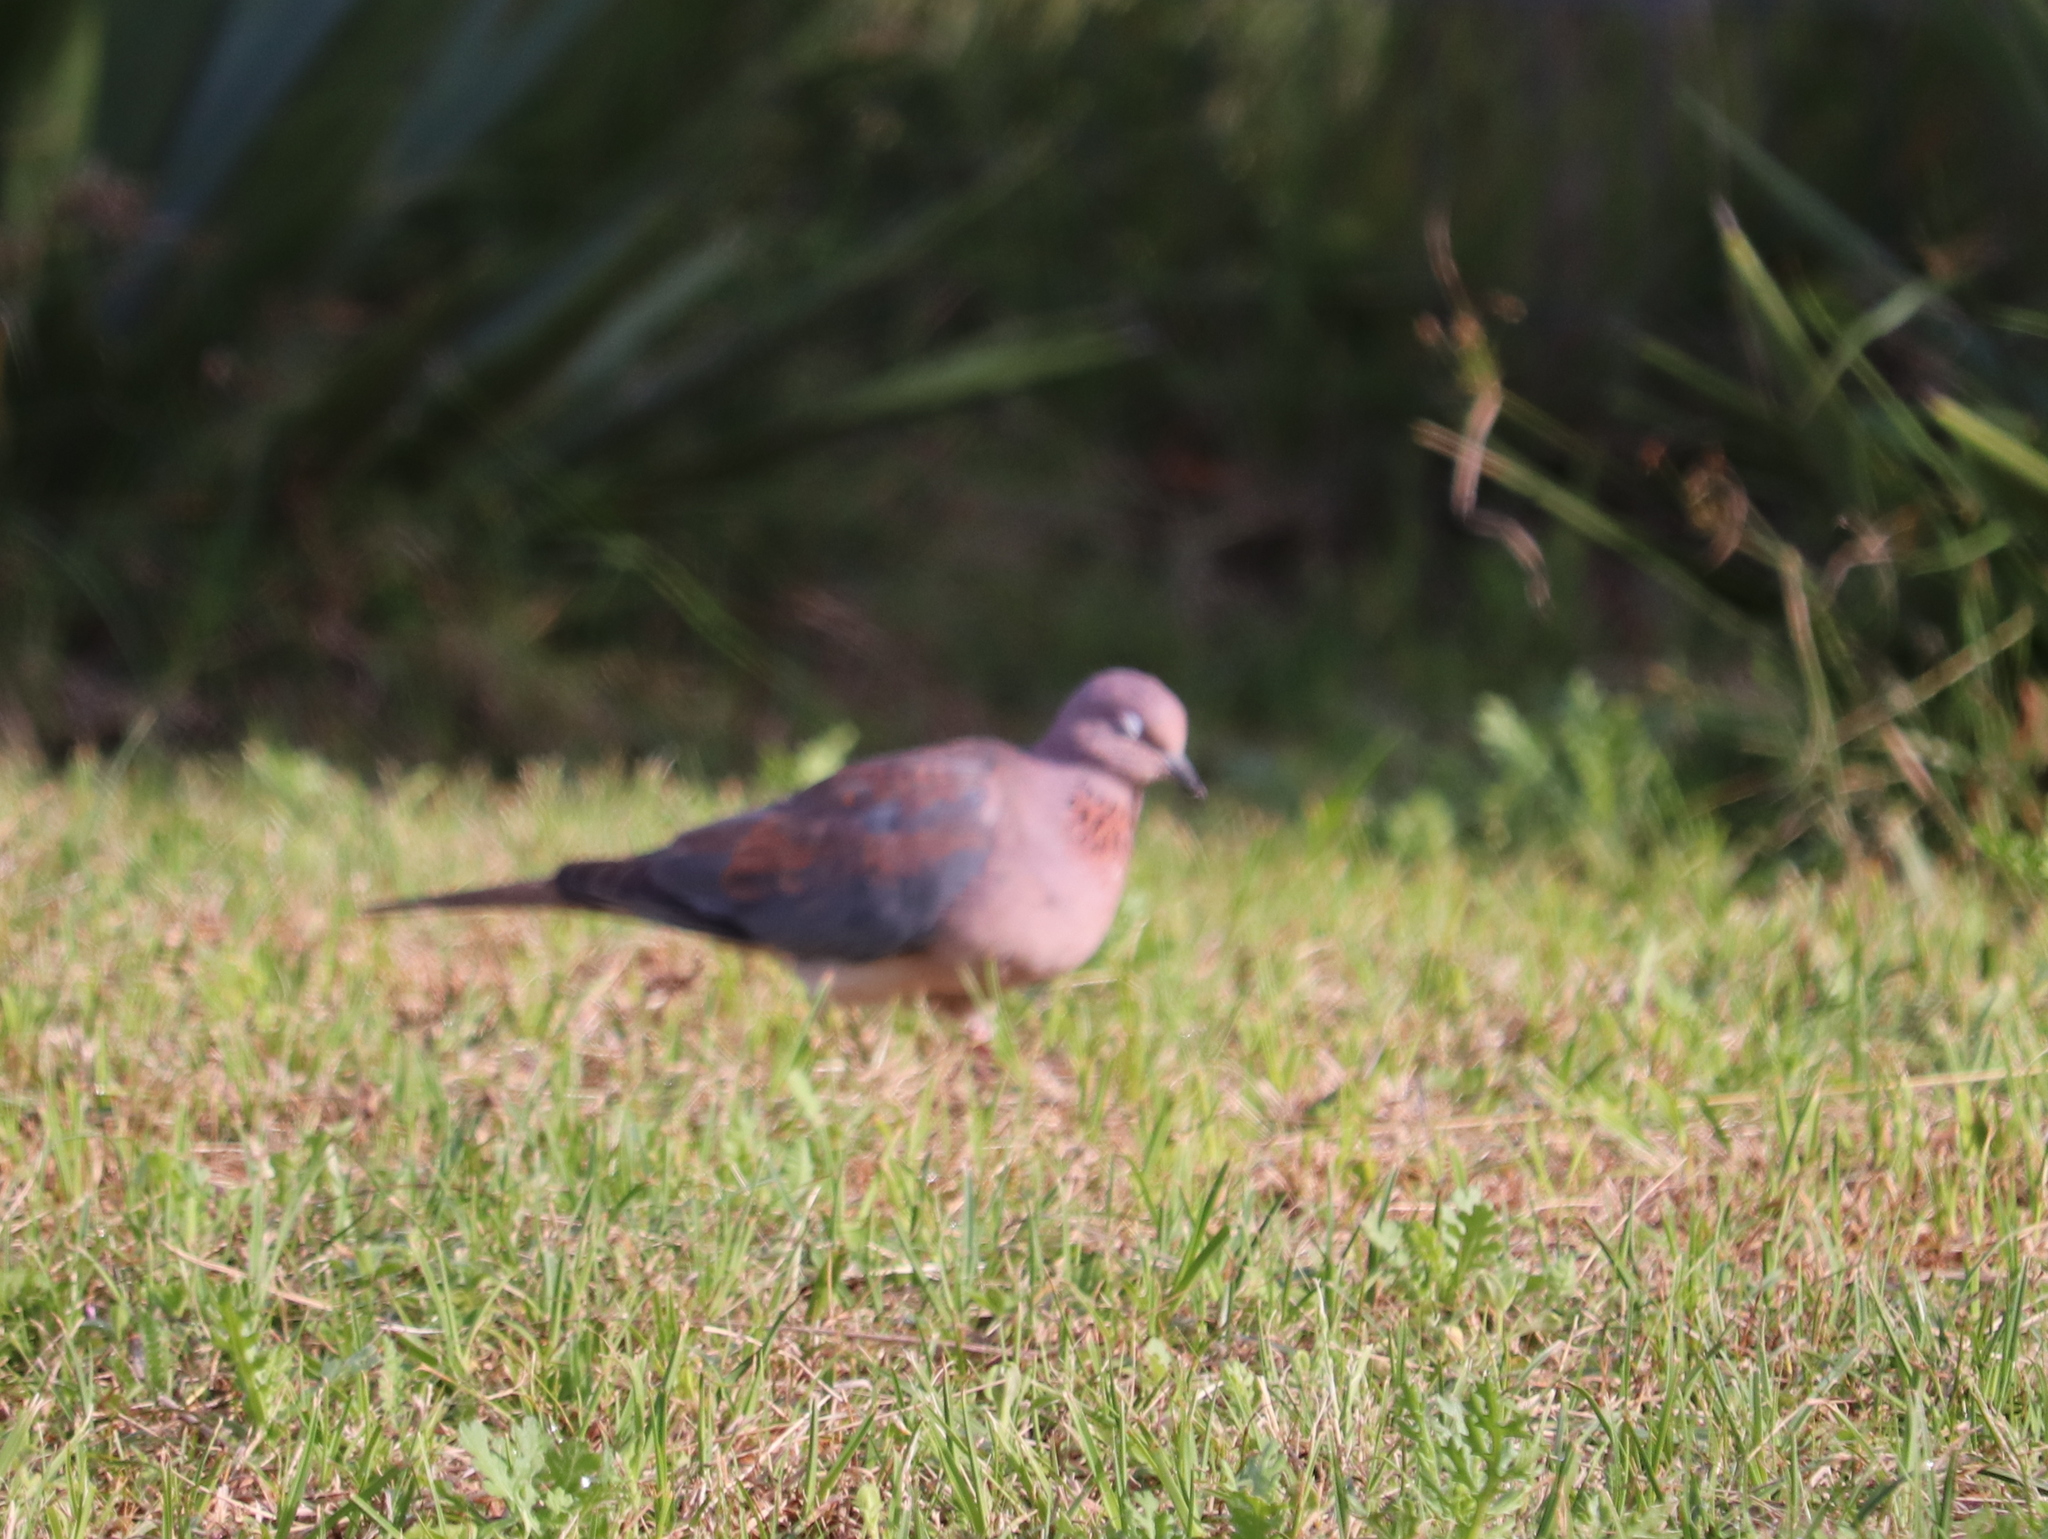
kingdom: Animalia
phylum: Chordata
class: Aves
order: Columbiformes
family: Columbidae
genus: Spilopelia
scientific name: Spilopelia senegalensis
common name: Laughing dove
